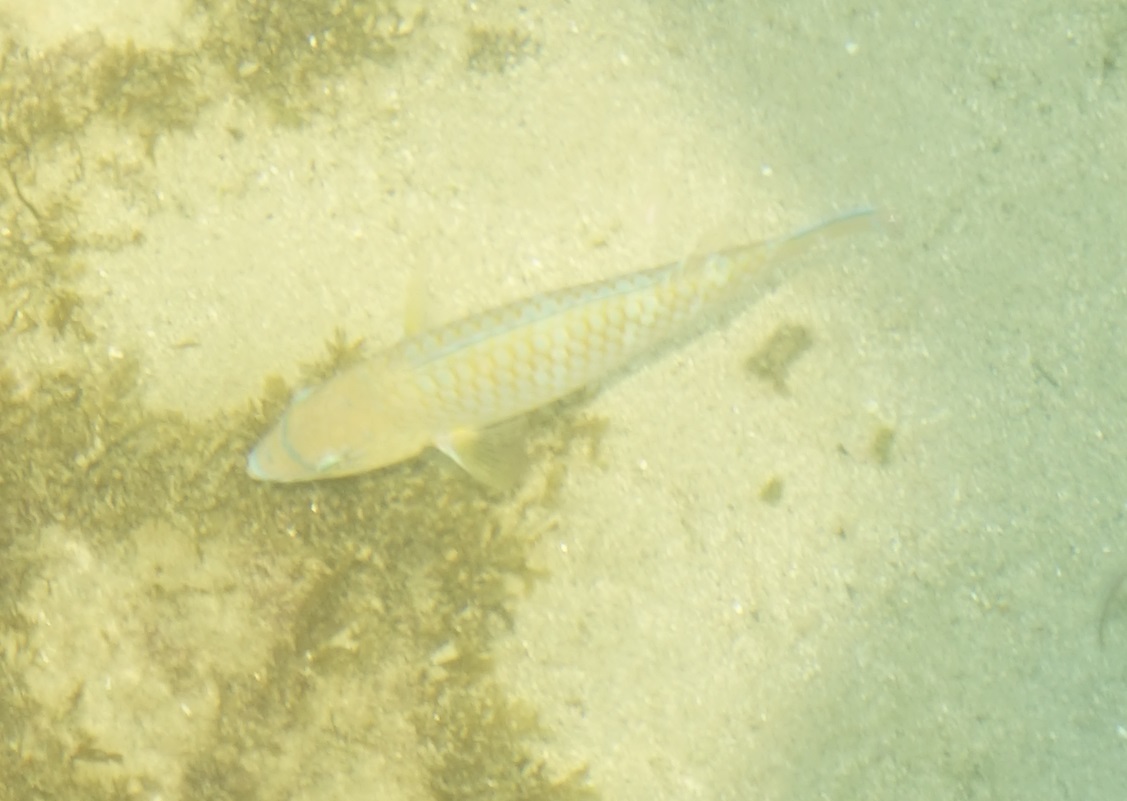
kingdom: Animalia
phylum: Chordata
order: Perciformes
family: Scaridae
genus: Scarus
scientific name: Scarus ghobban
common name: Blue-barred parrotfish
